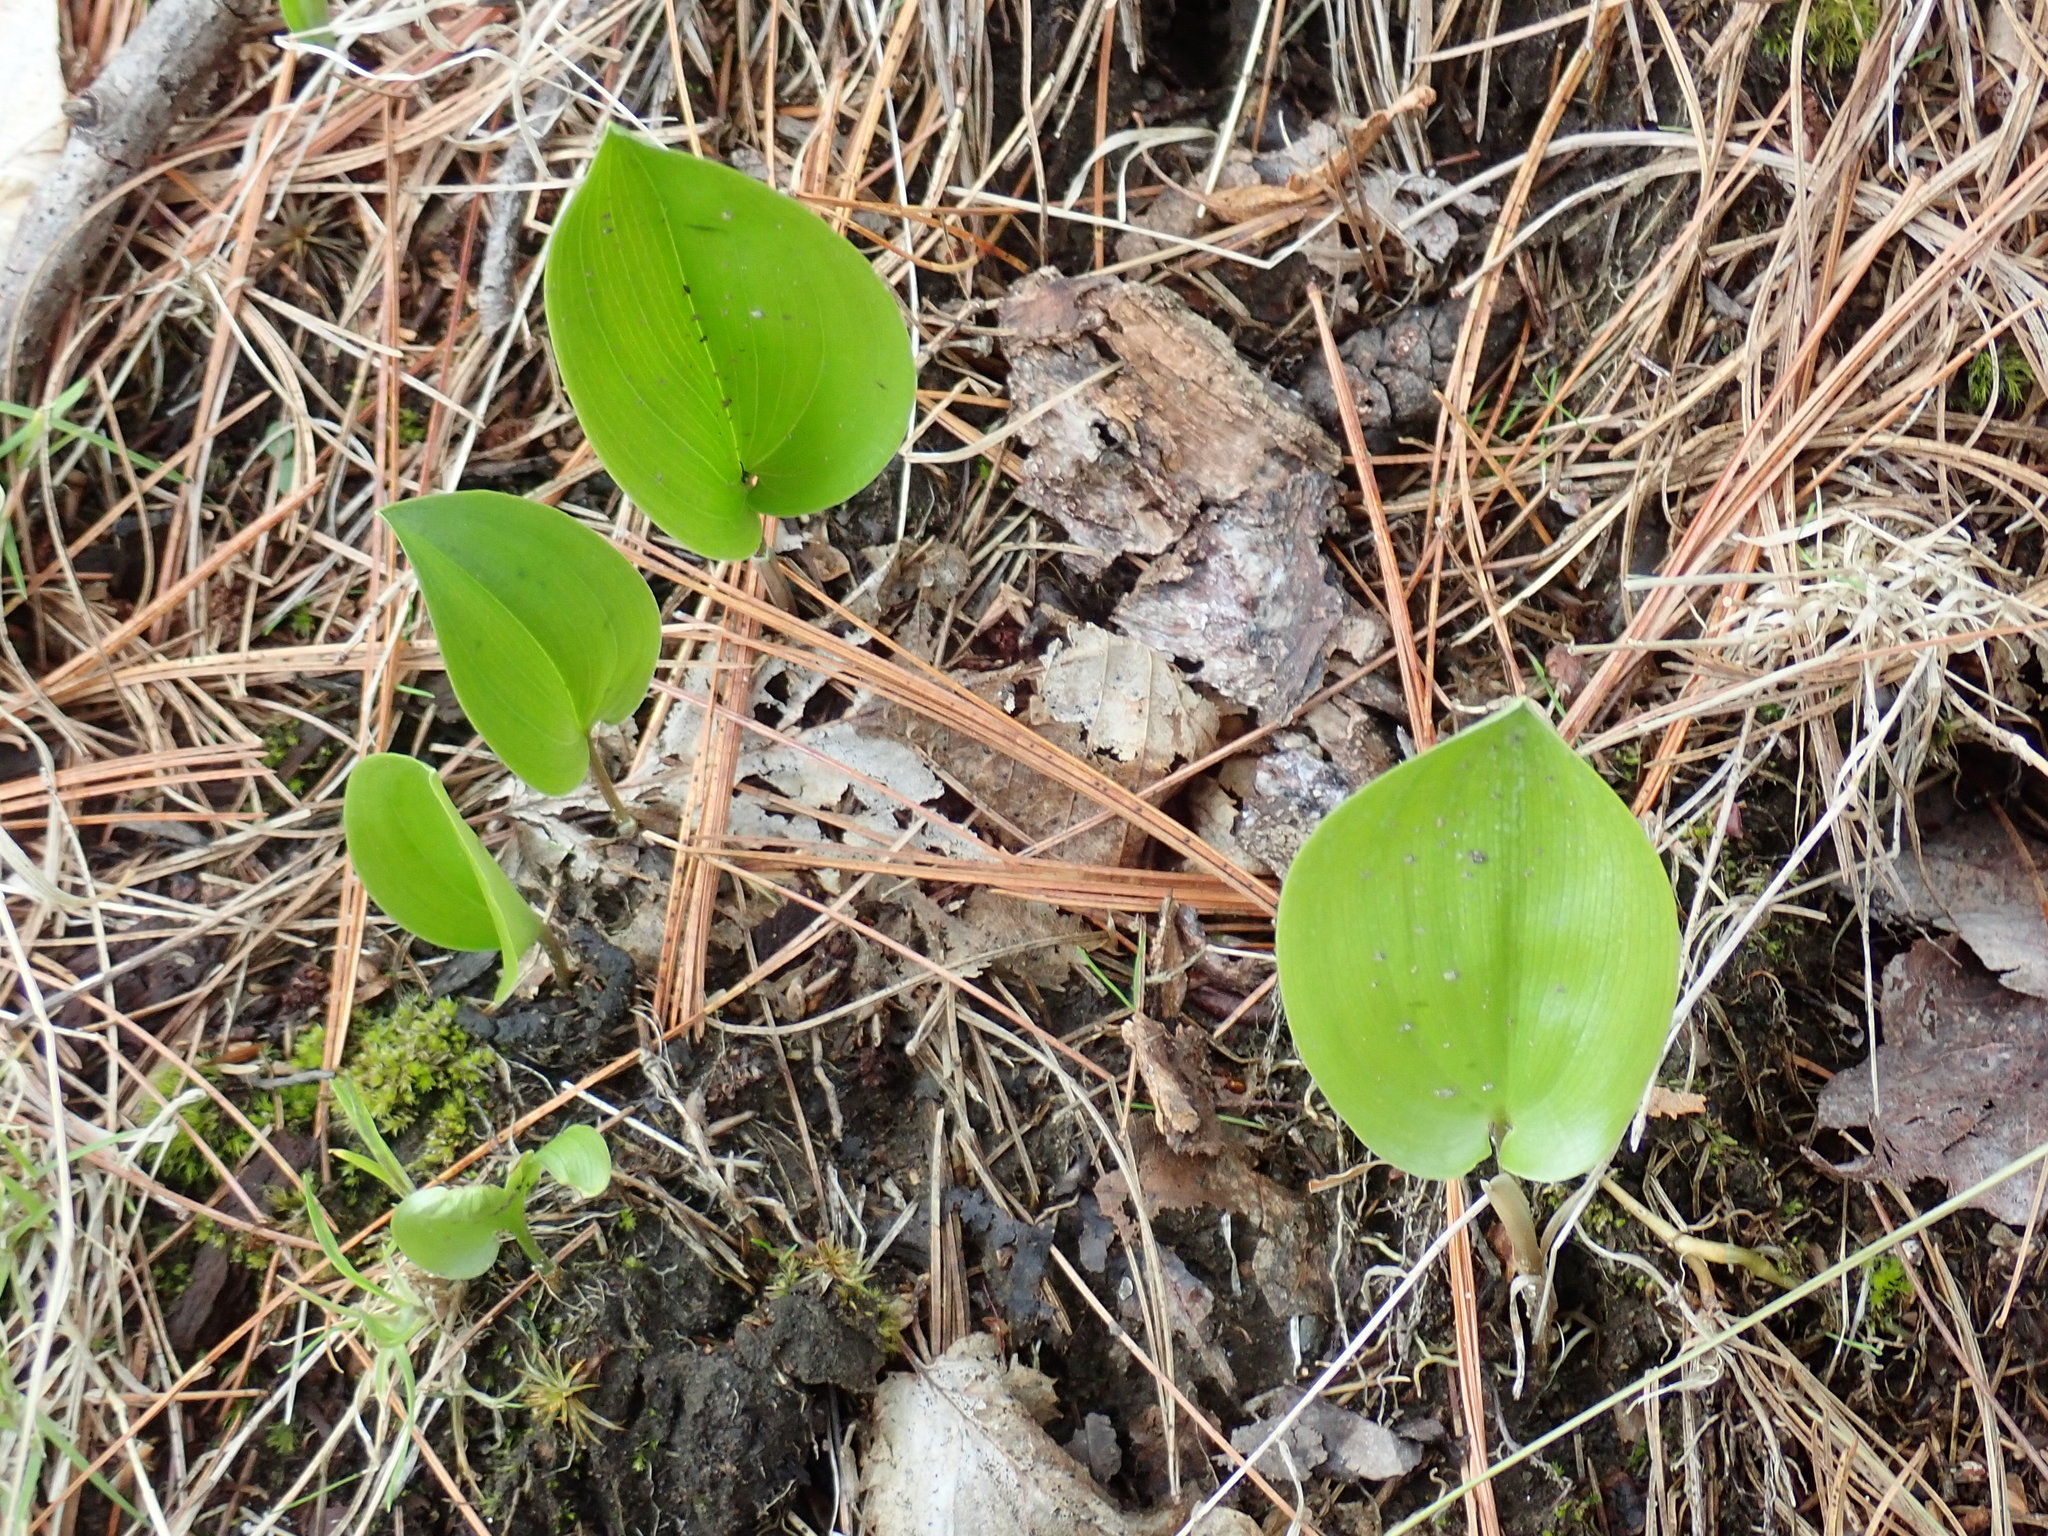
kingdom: Plantae
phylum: Tracheophyta
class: Liliopsida
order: Asparagales
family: Asparagaceae
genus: Maianthemum
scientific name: Maianthemum canadense
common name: False lily-of-the-valley
